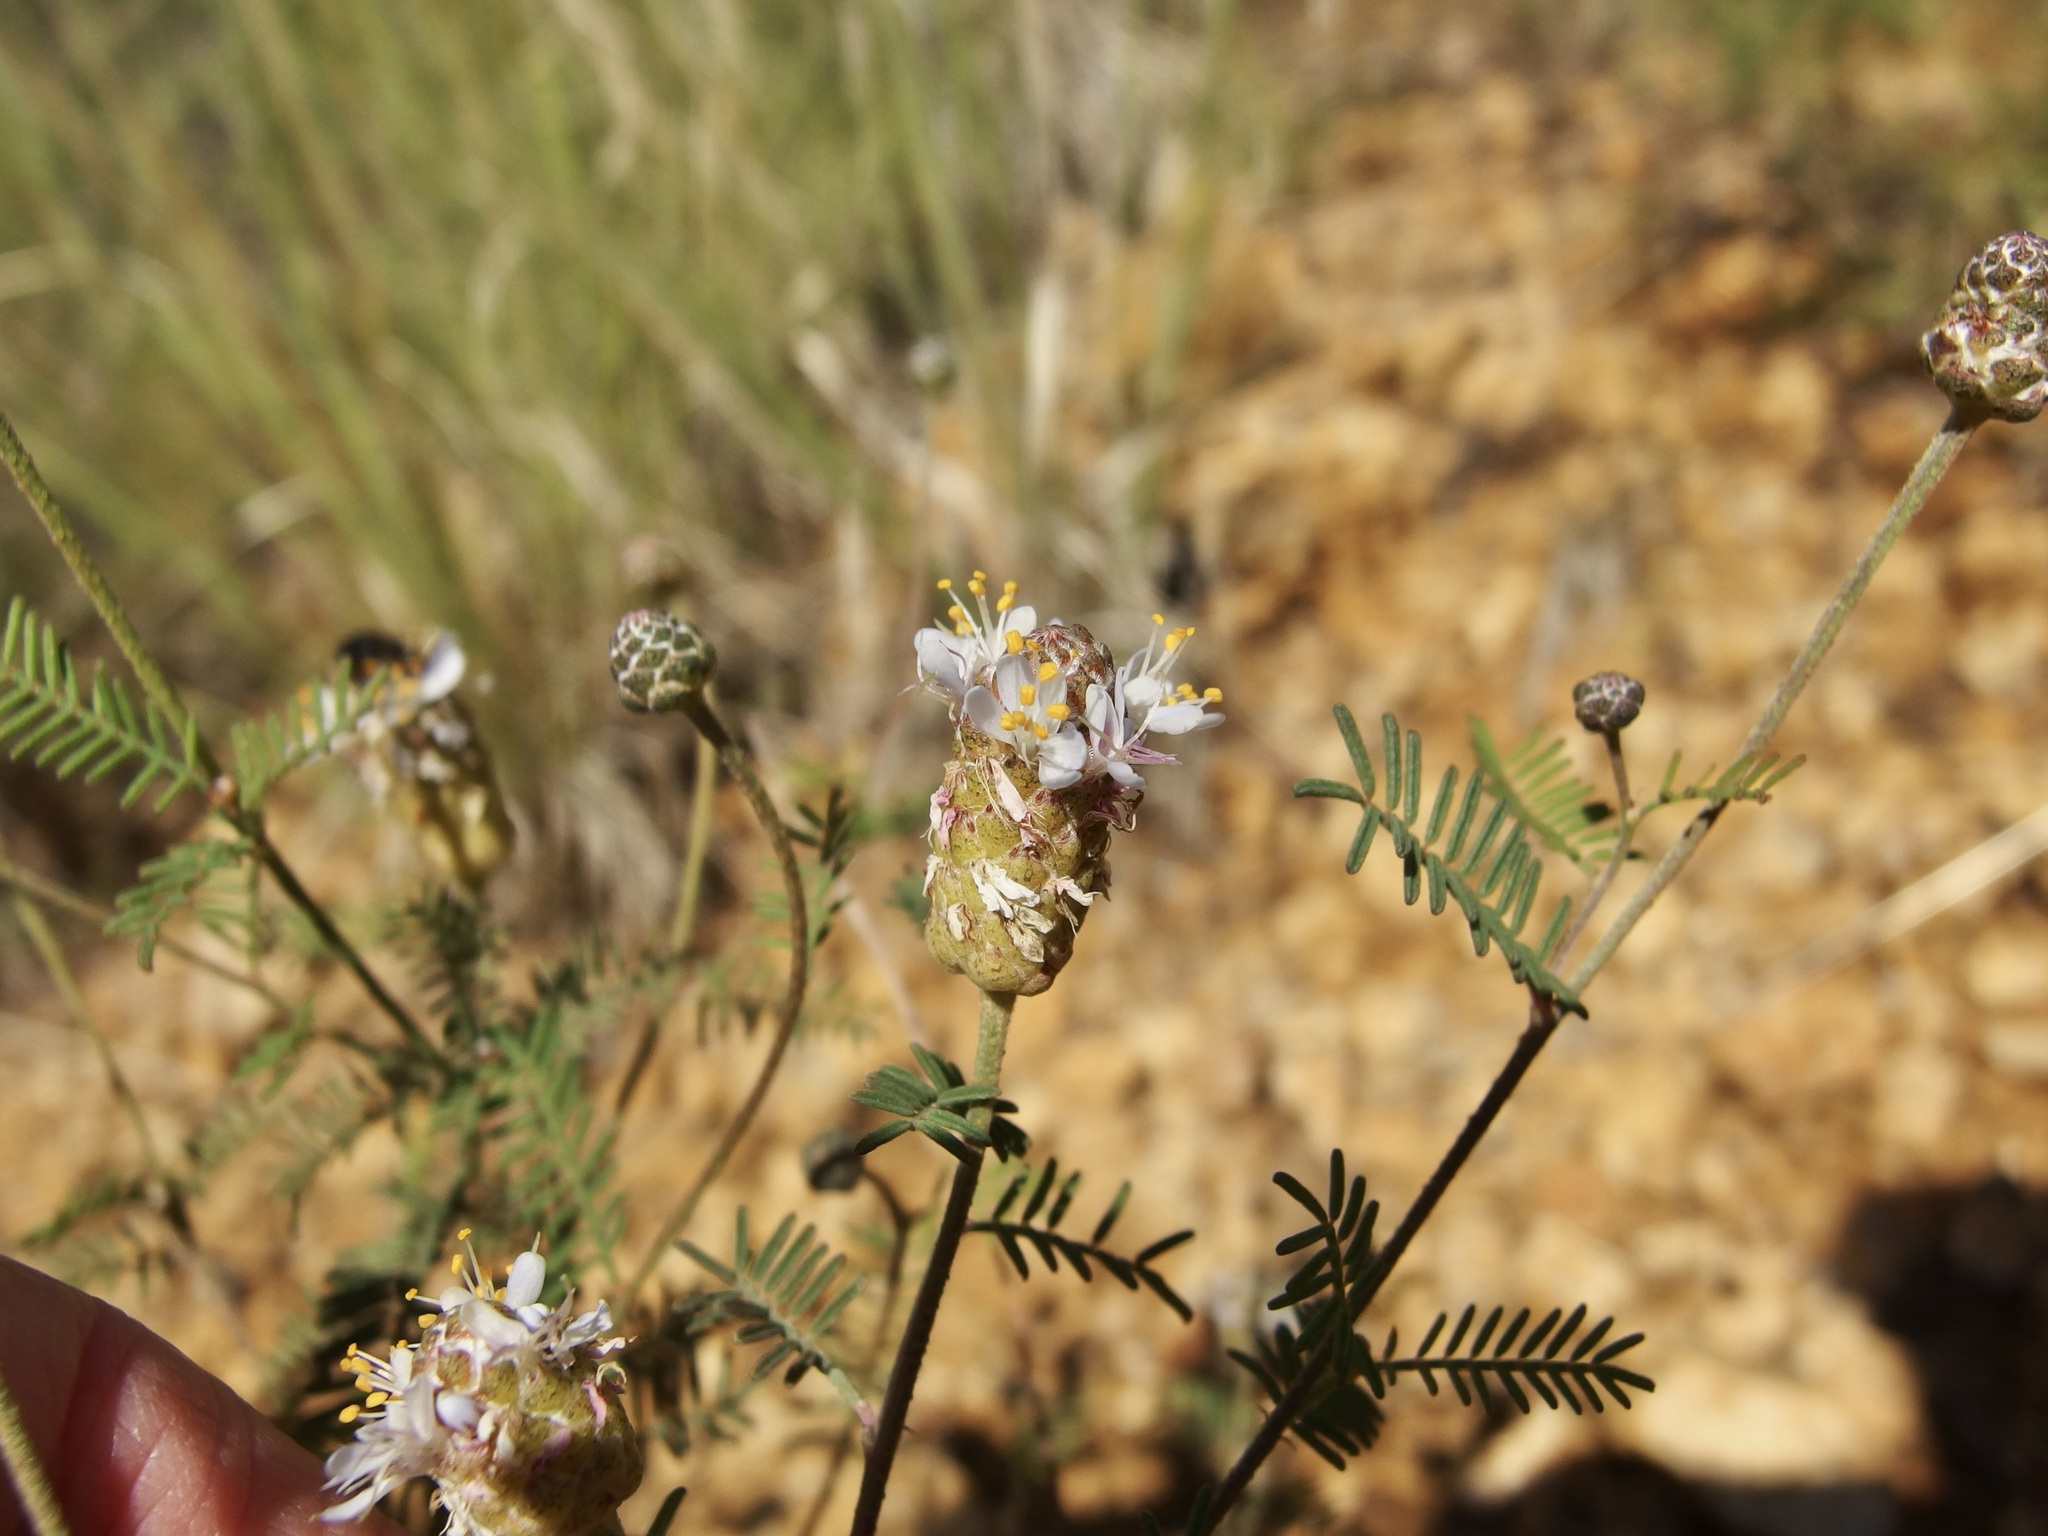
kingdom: Plantae
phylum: Tracheophyta
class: Magnoliopsida
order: Fabales
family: Fabaceae
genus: Dalea
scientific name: Dalea lumholtzii
